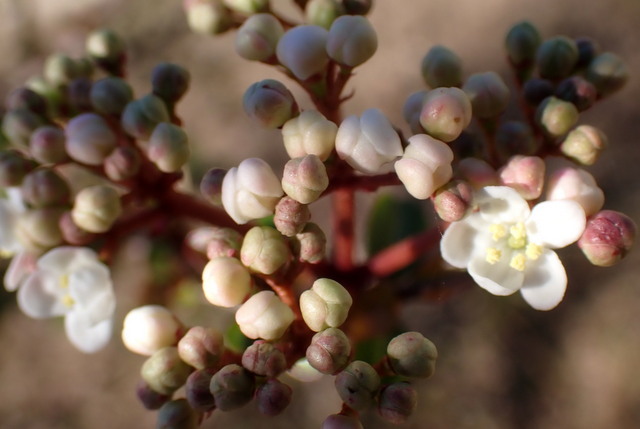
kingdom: Plantae
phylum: Tracheophyta
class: Magnoliopsida
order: Dipsacales
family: Viburnaceae
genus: Viburnum
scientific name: Viburnum obovatum
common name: Walter's viburnum
